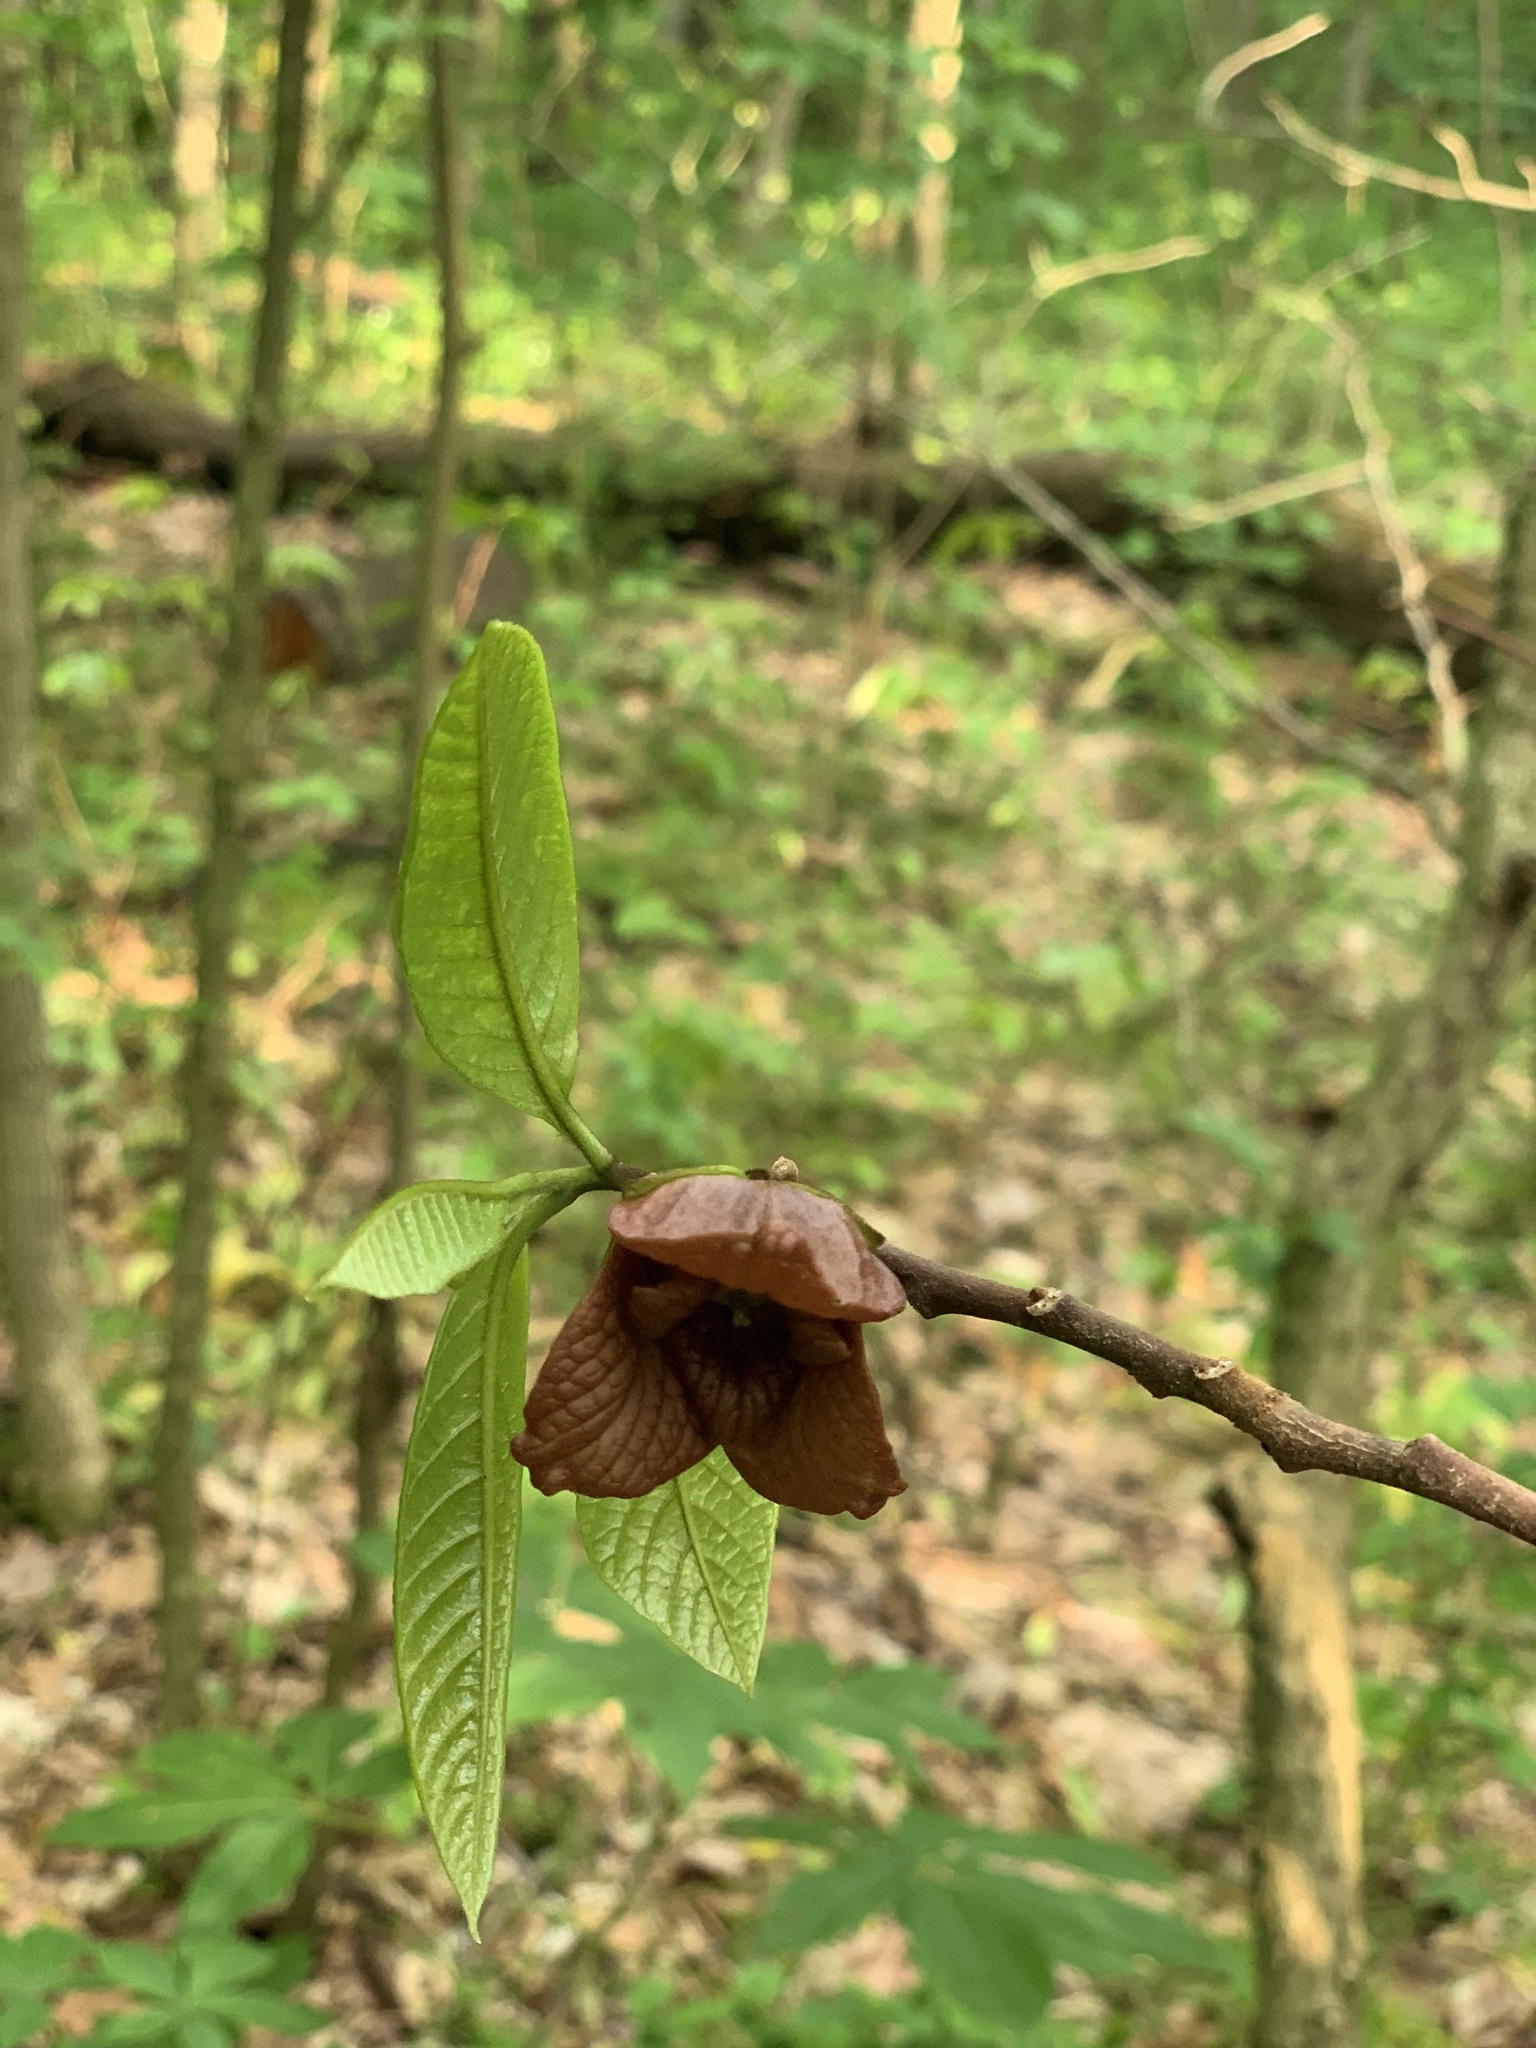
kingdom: Plantae
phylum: Tracheophyta
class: Magnoliopsida
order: Magnoliales
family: Annonaceae
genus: Asimina
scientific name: Asimina triloba
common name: Dog-banana
